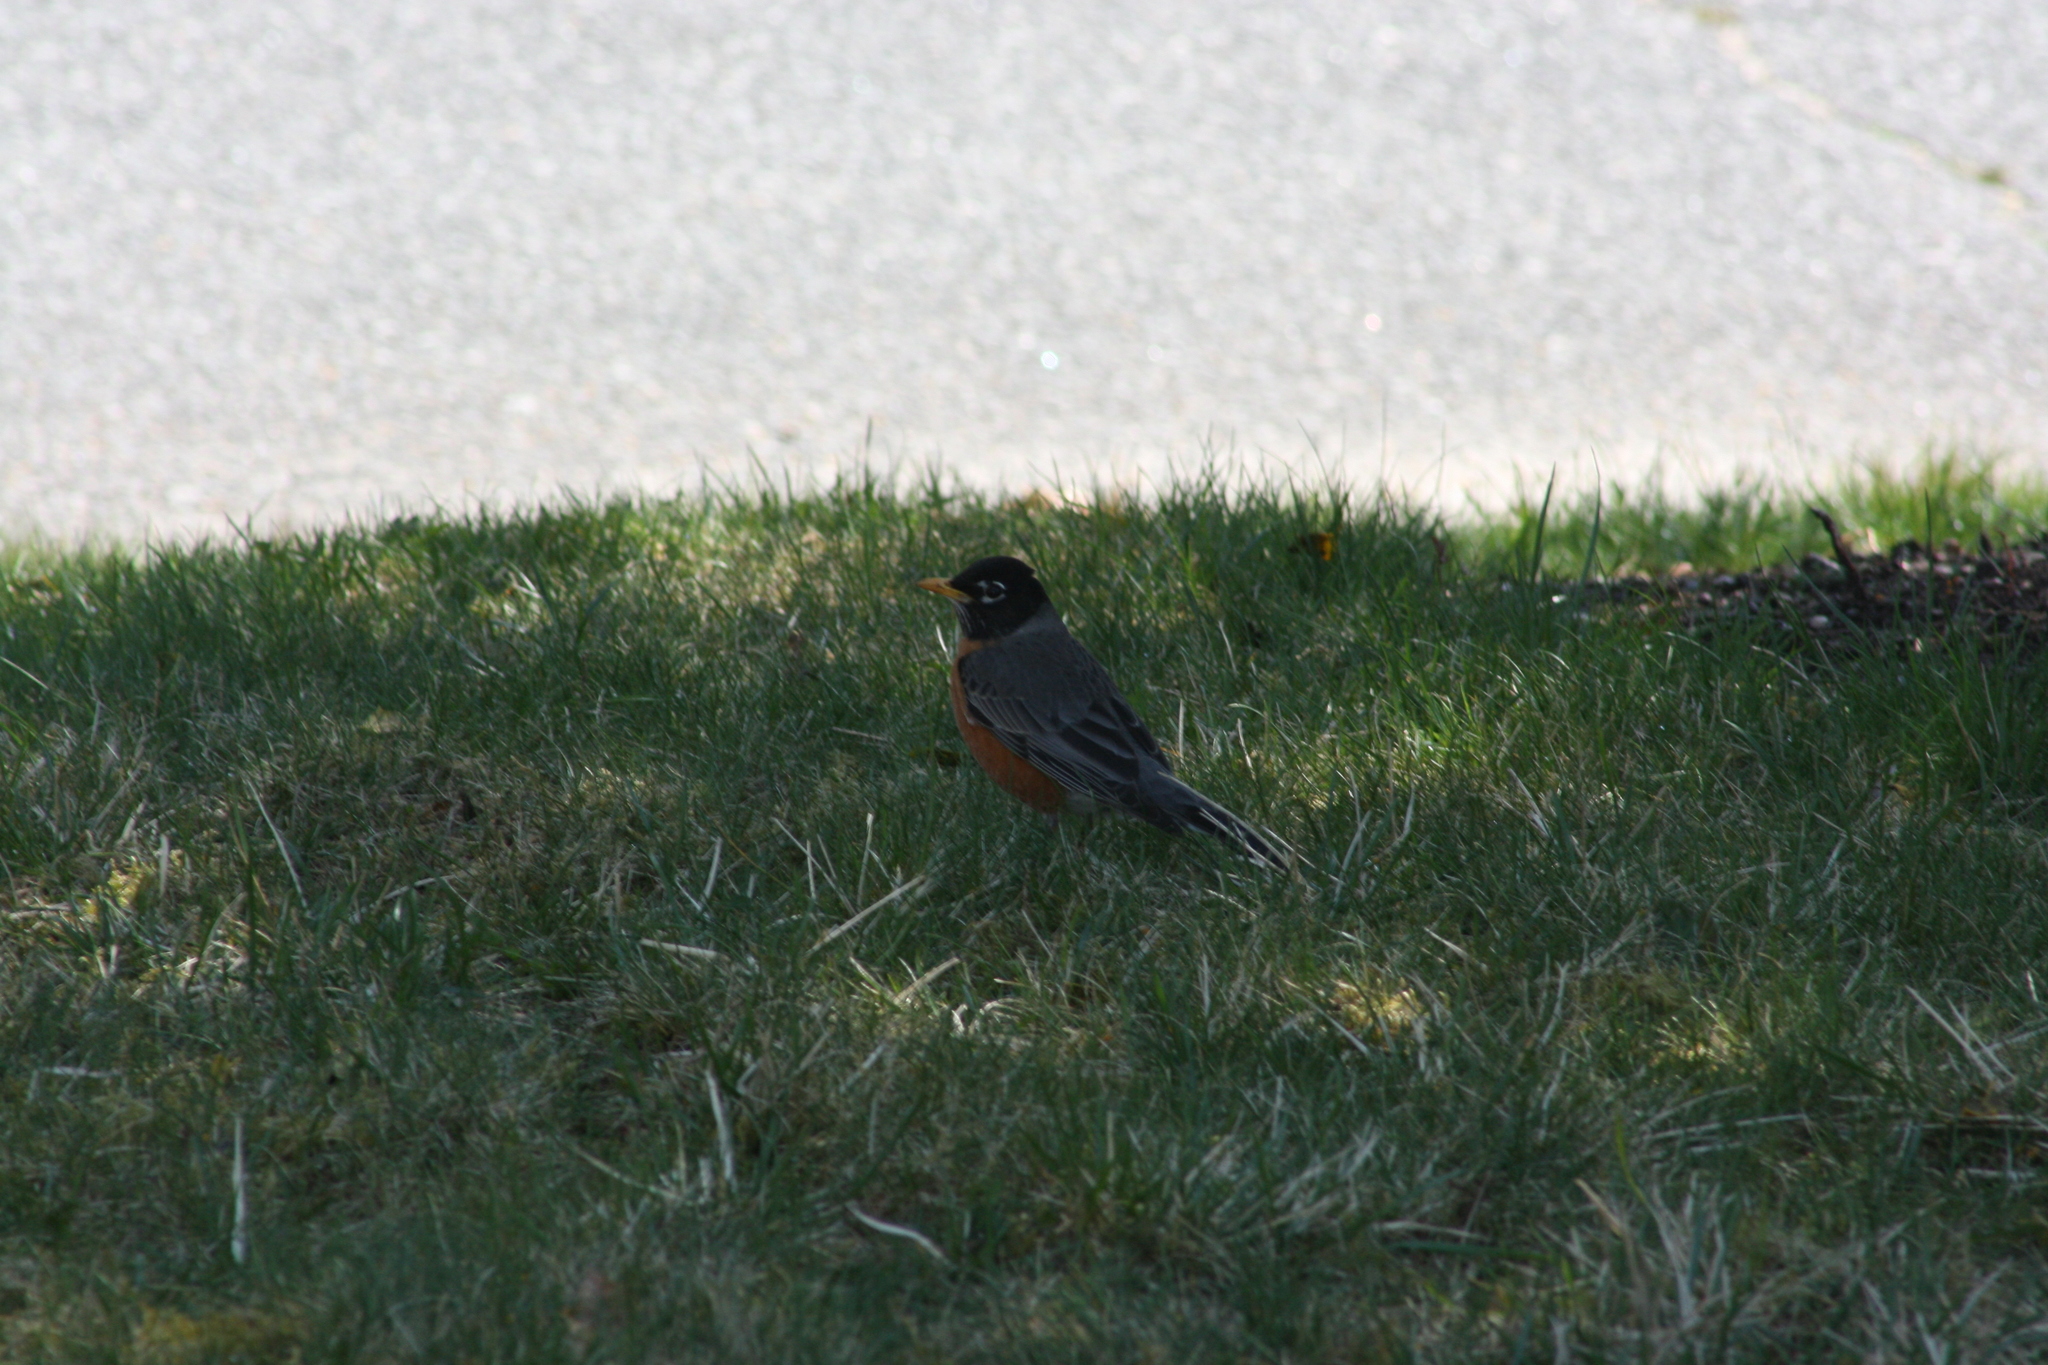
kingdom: Animalia
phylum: Chordata
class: Aves
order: Passeriformes
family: Turdidae
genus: Turdus
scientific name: Turdus migratorius
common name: American robin
